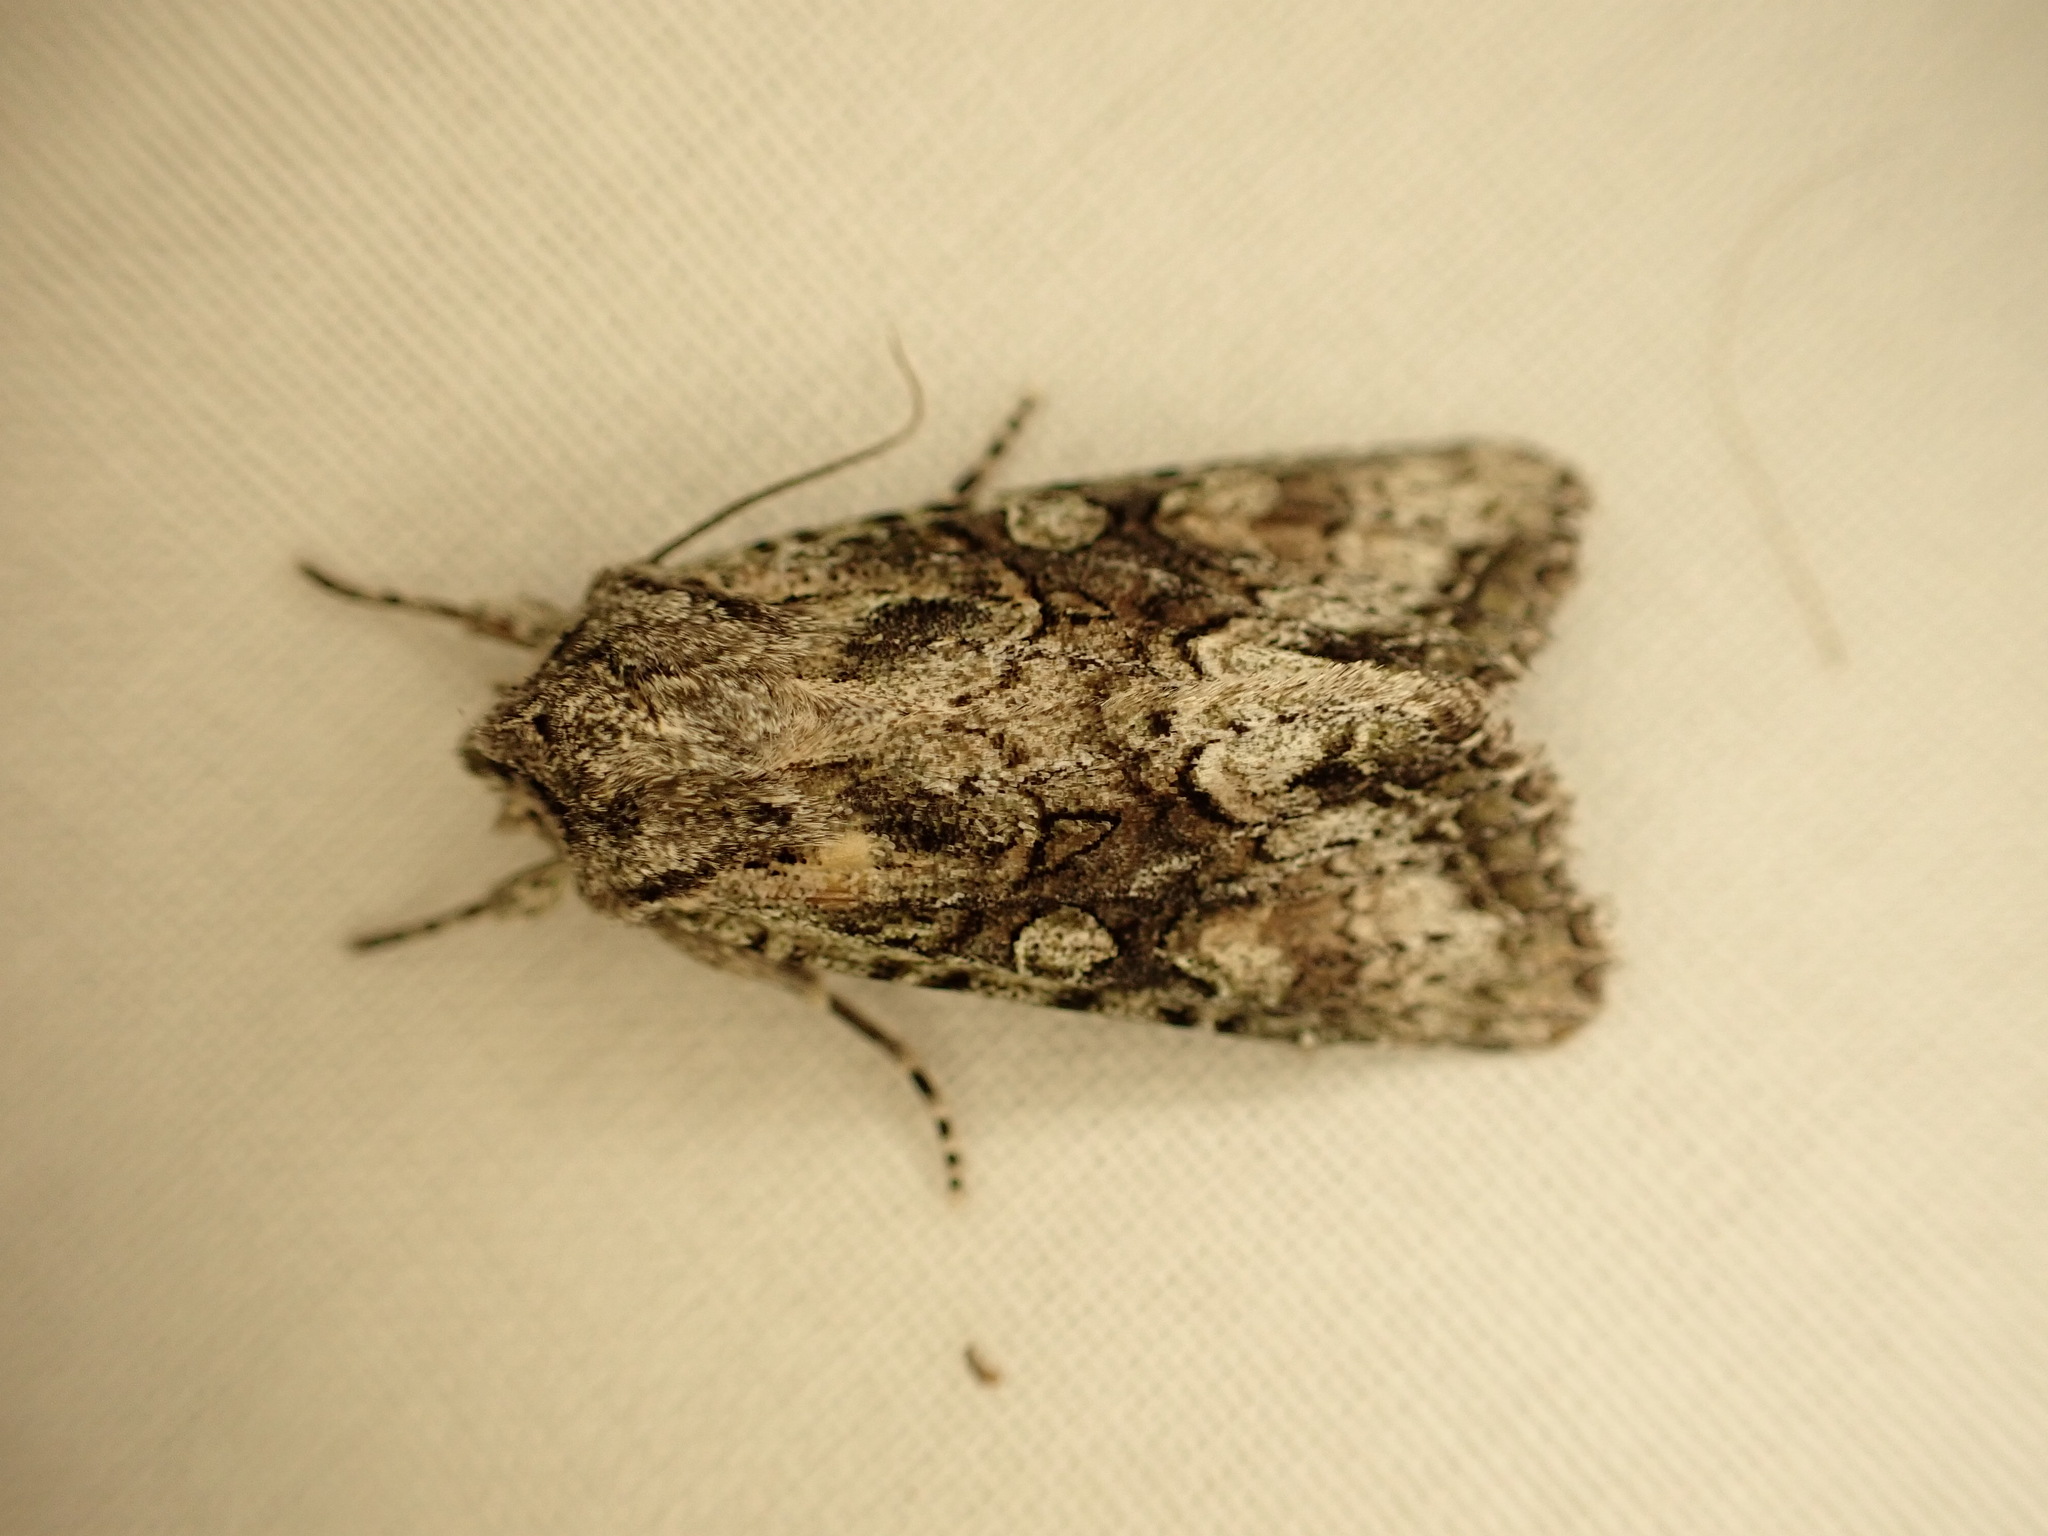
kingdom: Animalia
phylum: Arthropoda
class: Insecta
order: Lepidoptera
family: Noctuidae
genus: Ichneutica
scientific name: Ichneutica mutans
